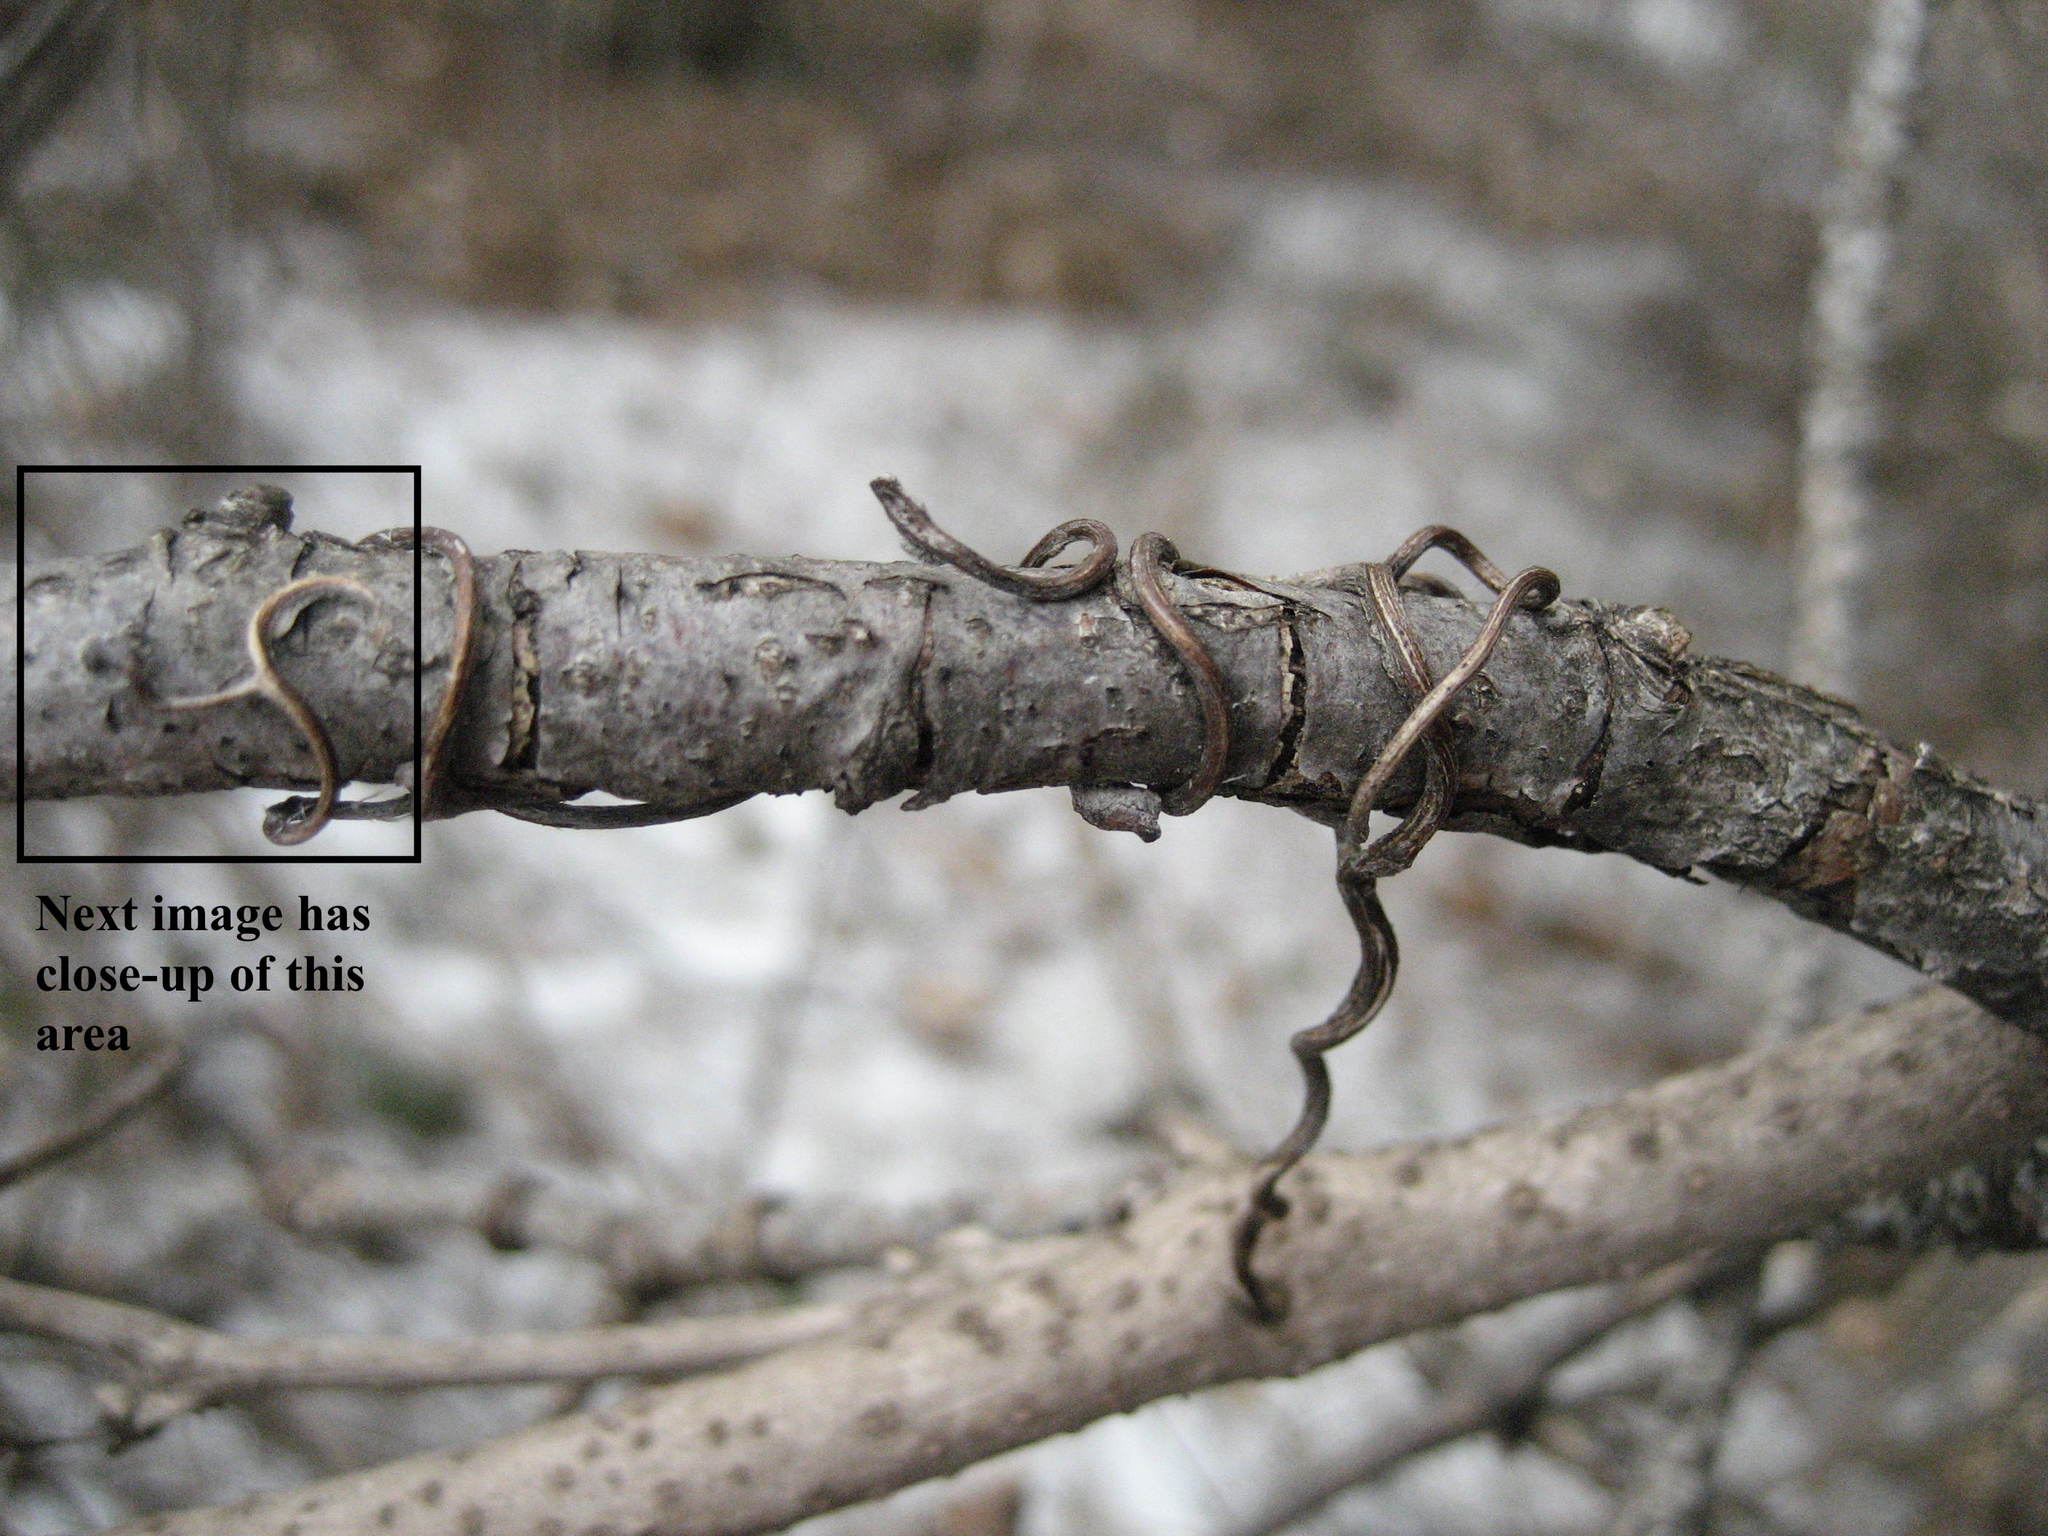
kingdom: Plantae
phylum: Tracheophyta
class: Magnoliopsida
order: Vitales
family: Vitaceae
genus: Parthenocissus
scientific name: Parthenocissus quinquefolia
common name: Virginia-creeper
